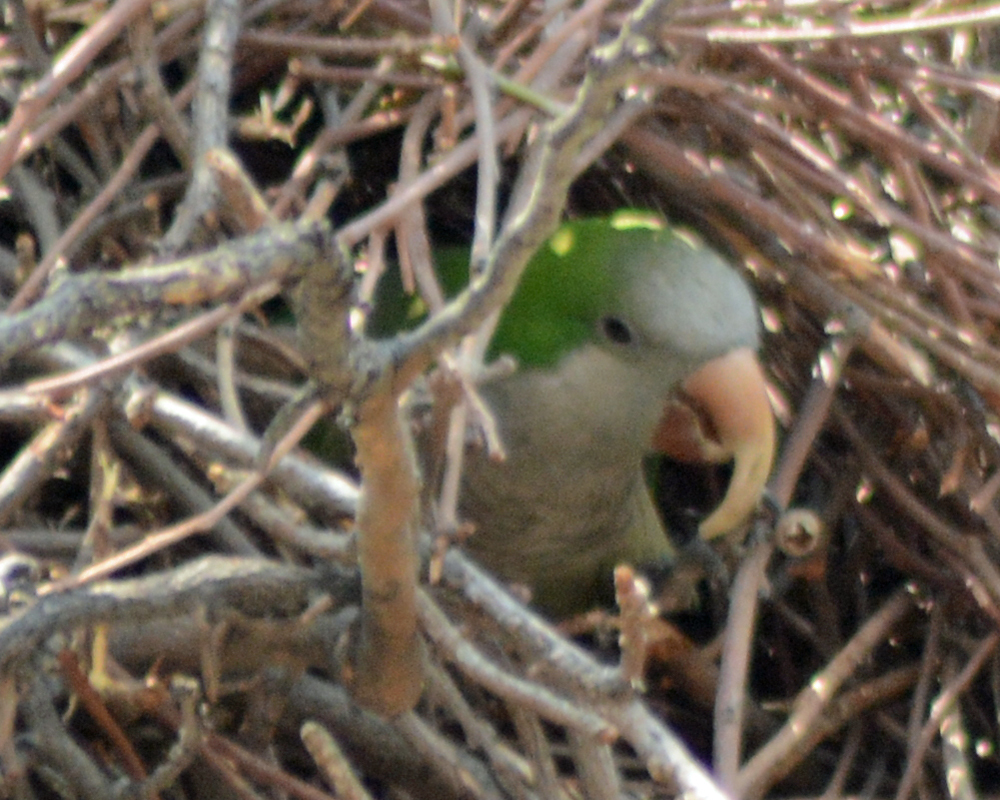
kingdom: Animalia
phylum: Chordata
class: Aves
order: Psittaciformes
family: Psittacidae
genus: Myiopsitta
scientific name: Myiopsitta monachus
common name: Monk parakeet
